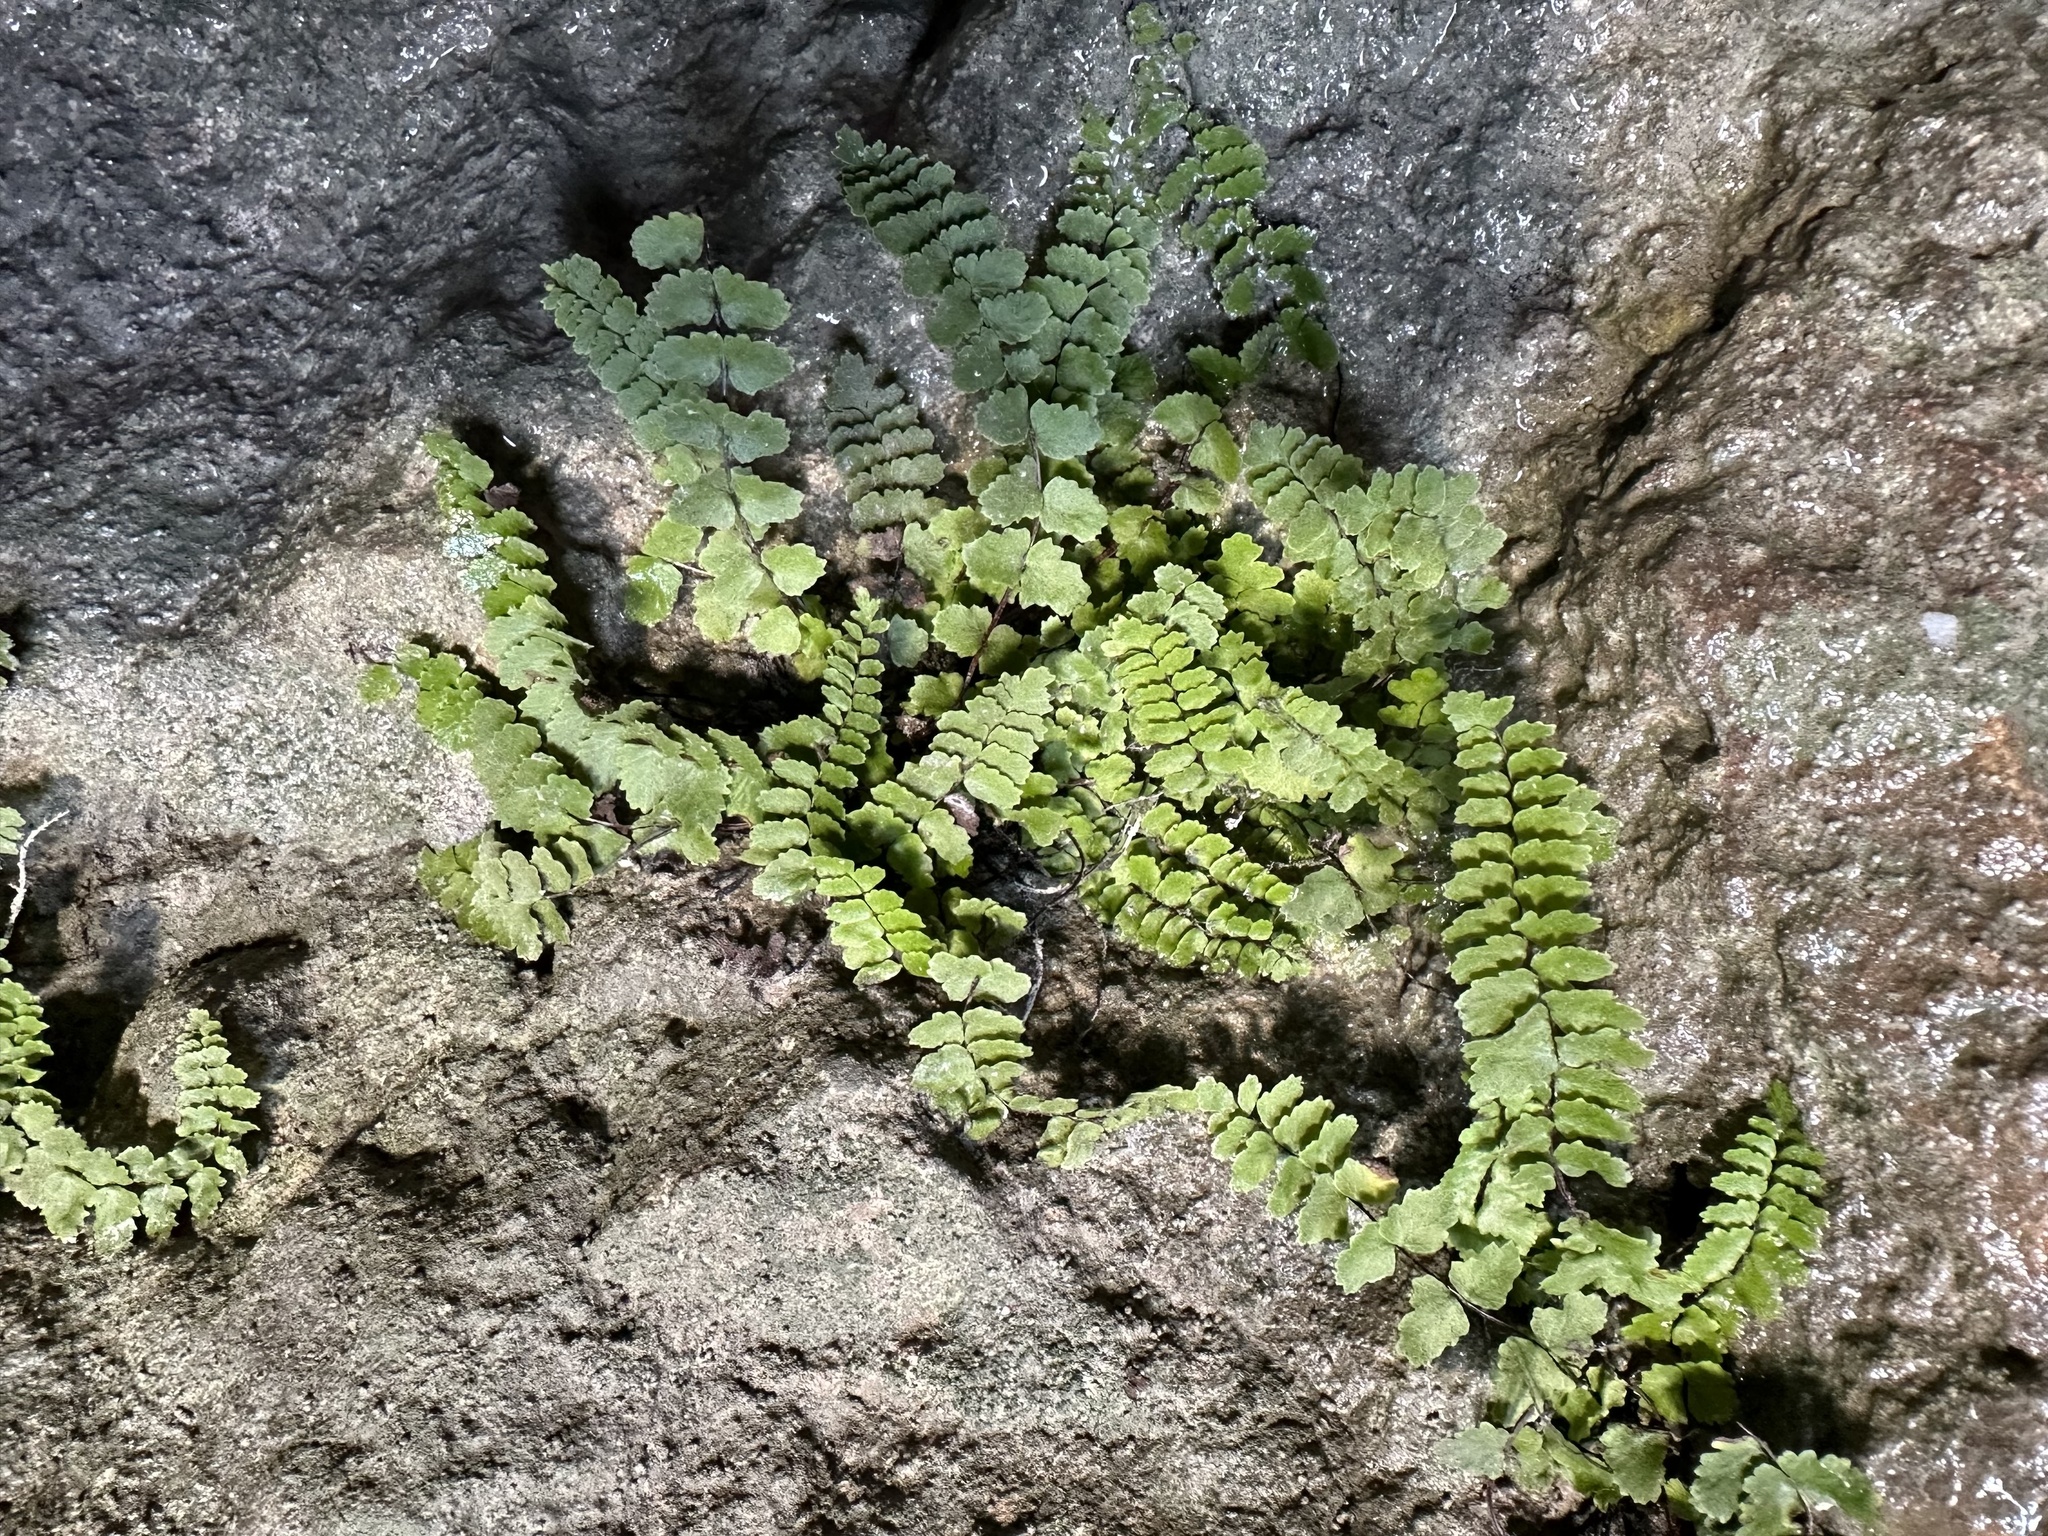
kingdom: Plantae
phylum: Tracheophyta
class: Polypodiopsida
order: Polypodiales
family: Aspleniaceae
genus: Asplenium
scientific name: Asplenium trichomanes
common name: Maidenhair spleenwort
